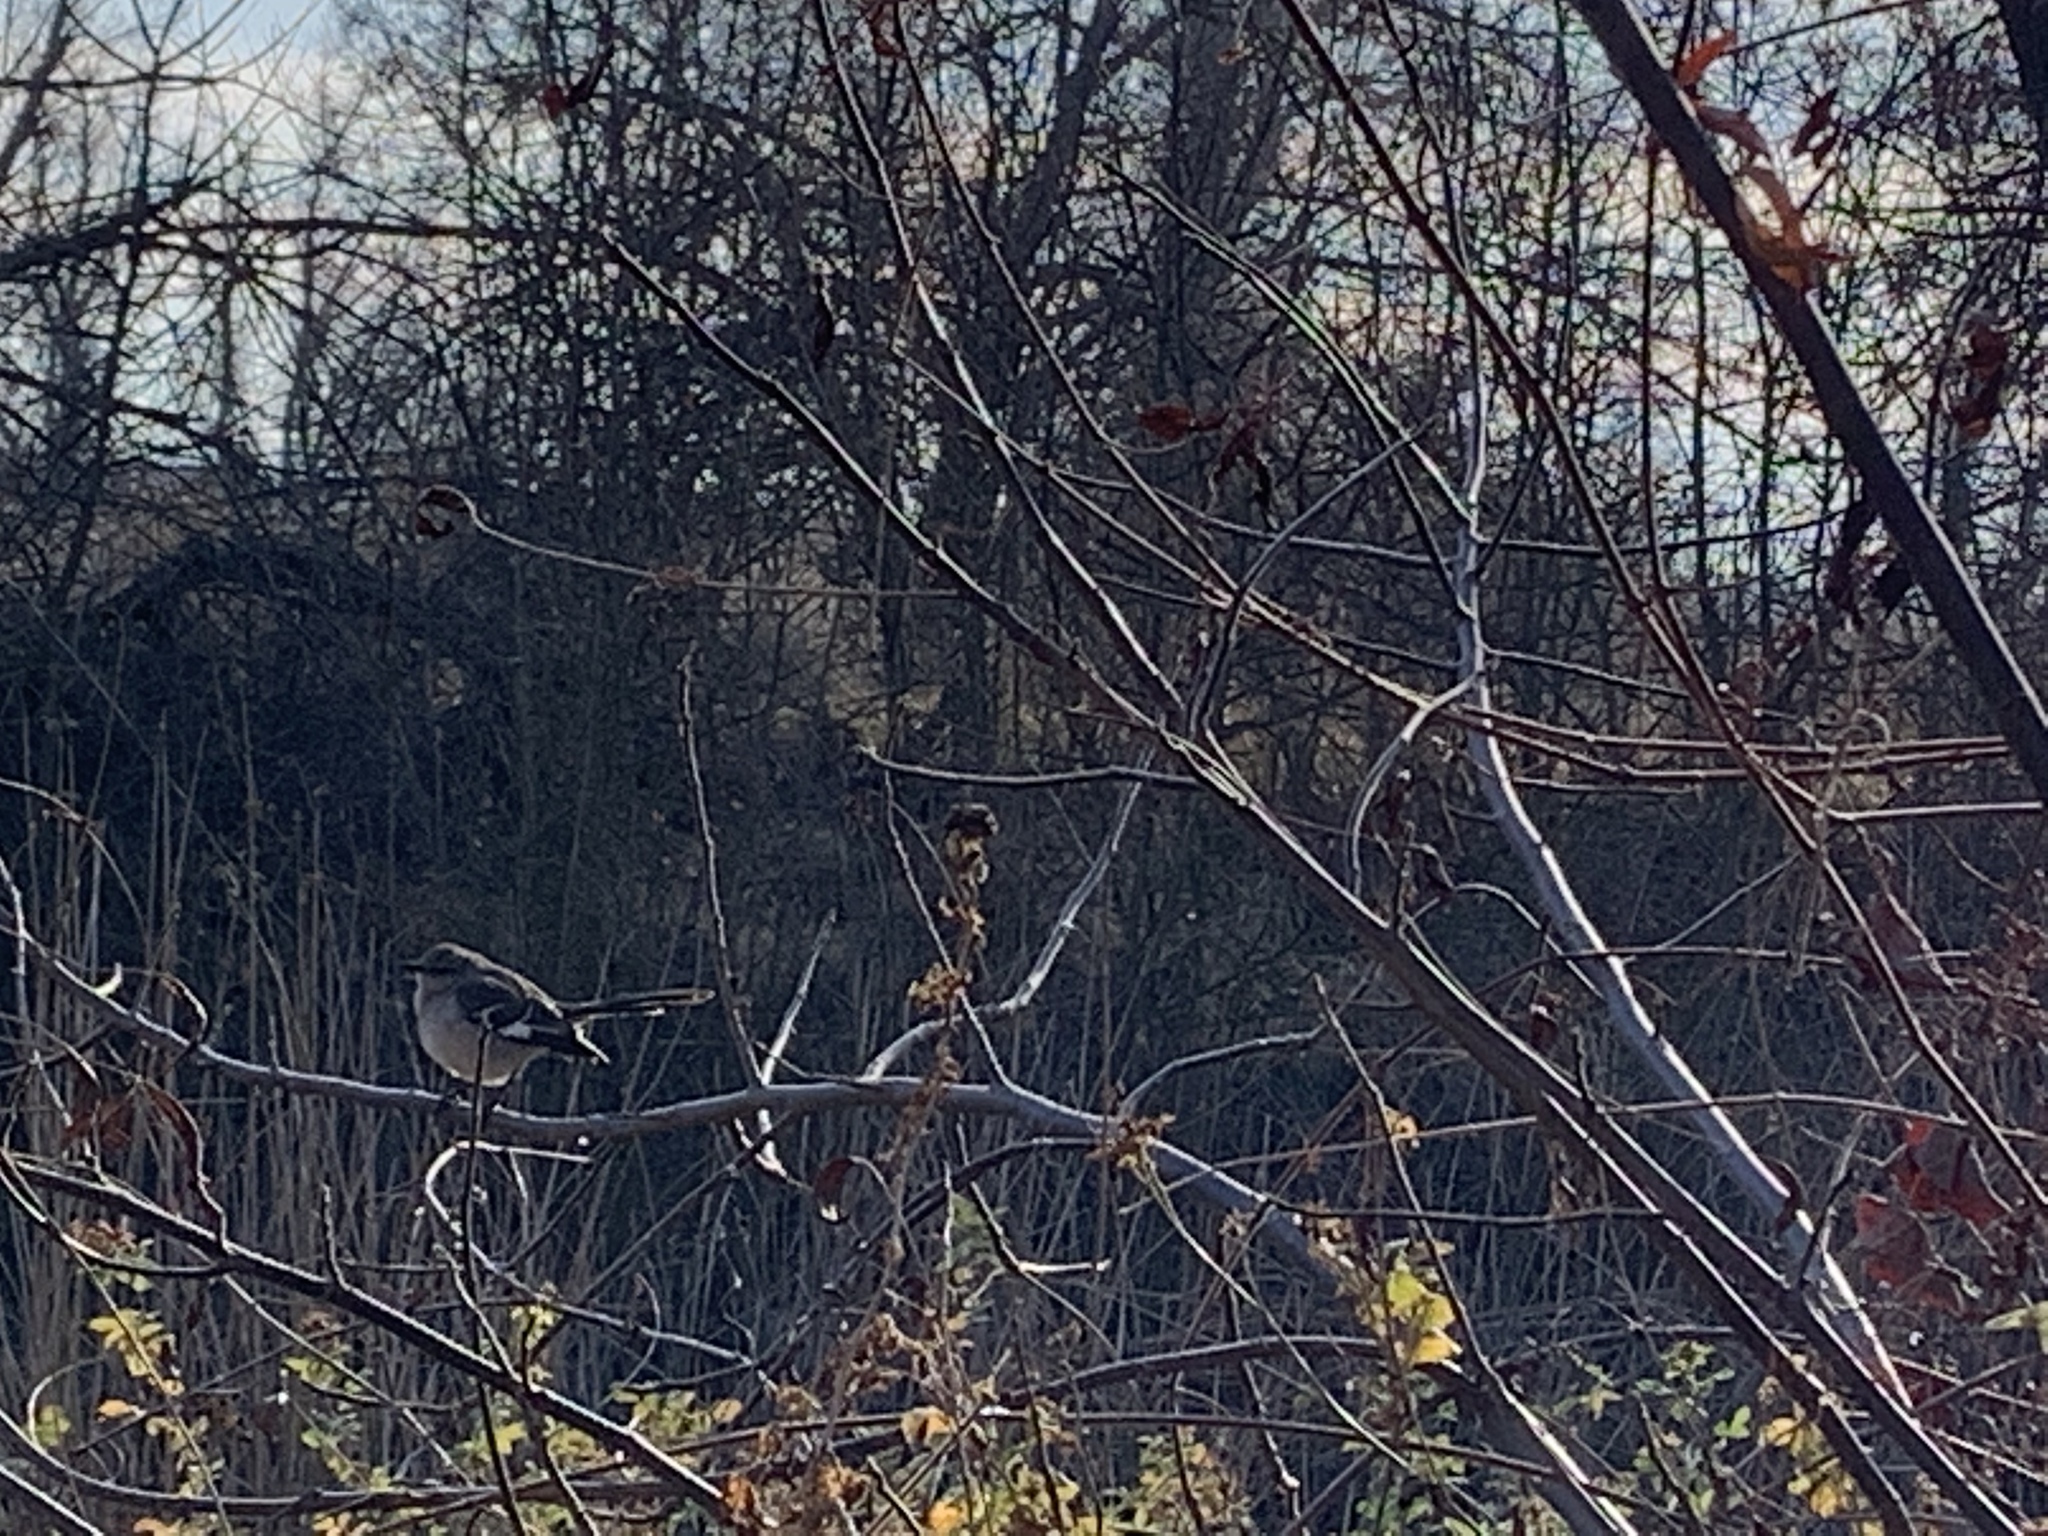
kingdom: Animalia
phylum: Chordata
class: Aves
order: Passeriformes
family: Mimidae
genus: Mimus
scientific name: Mimus polyglottos
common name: Northern mockingbird
